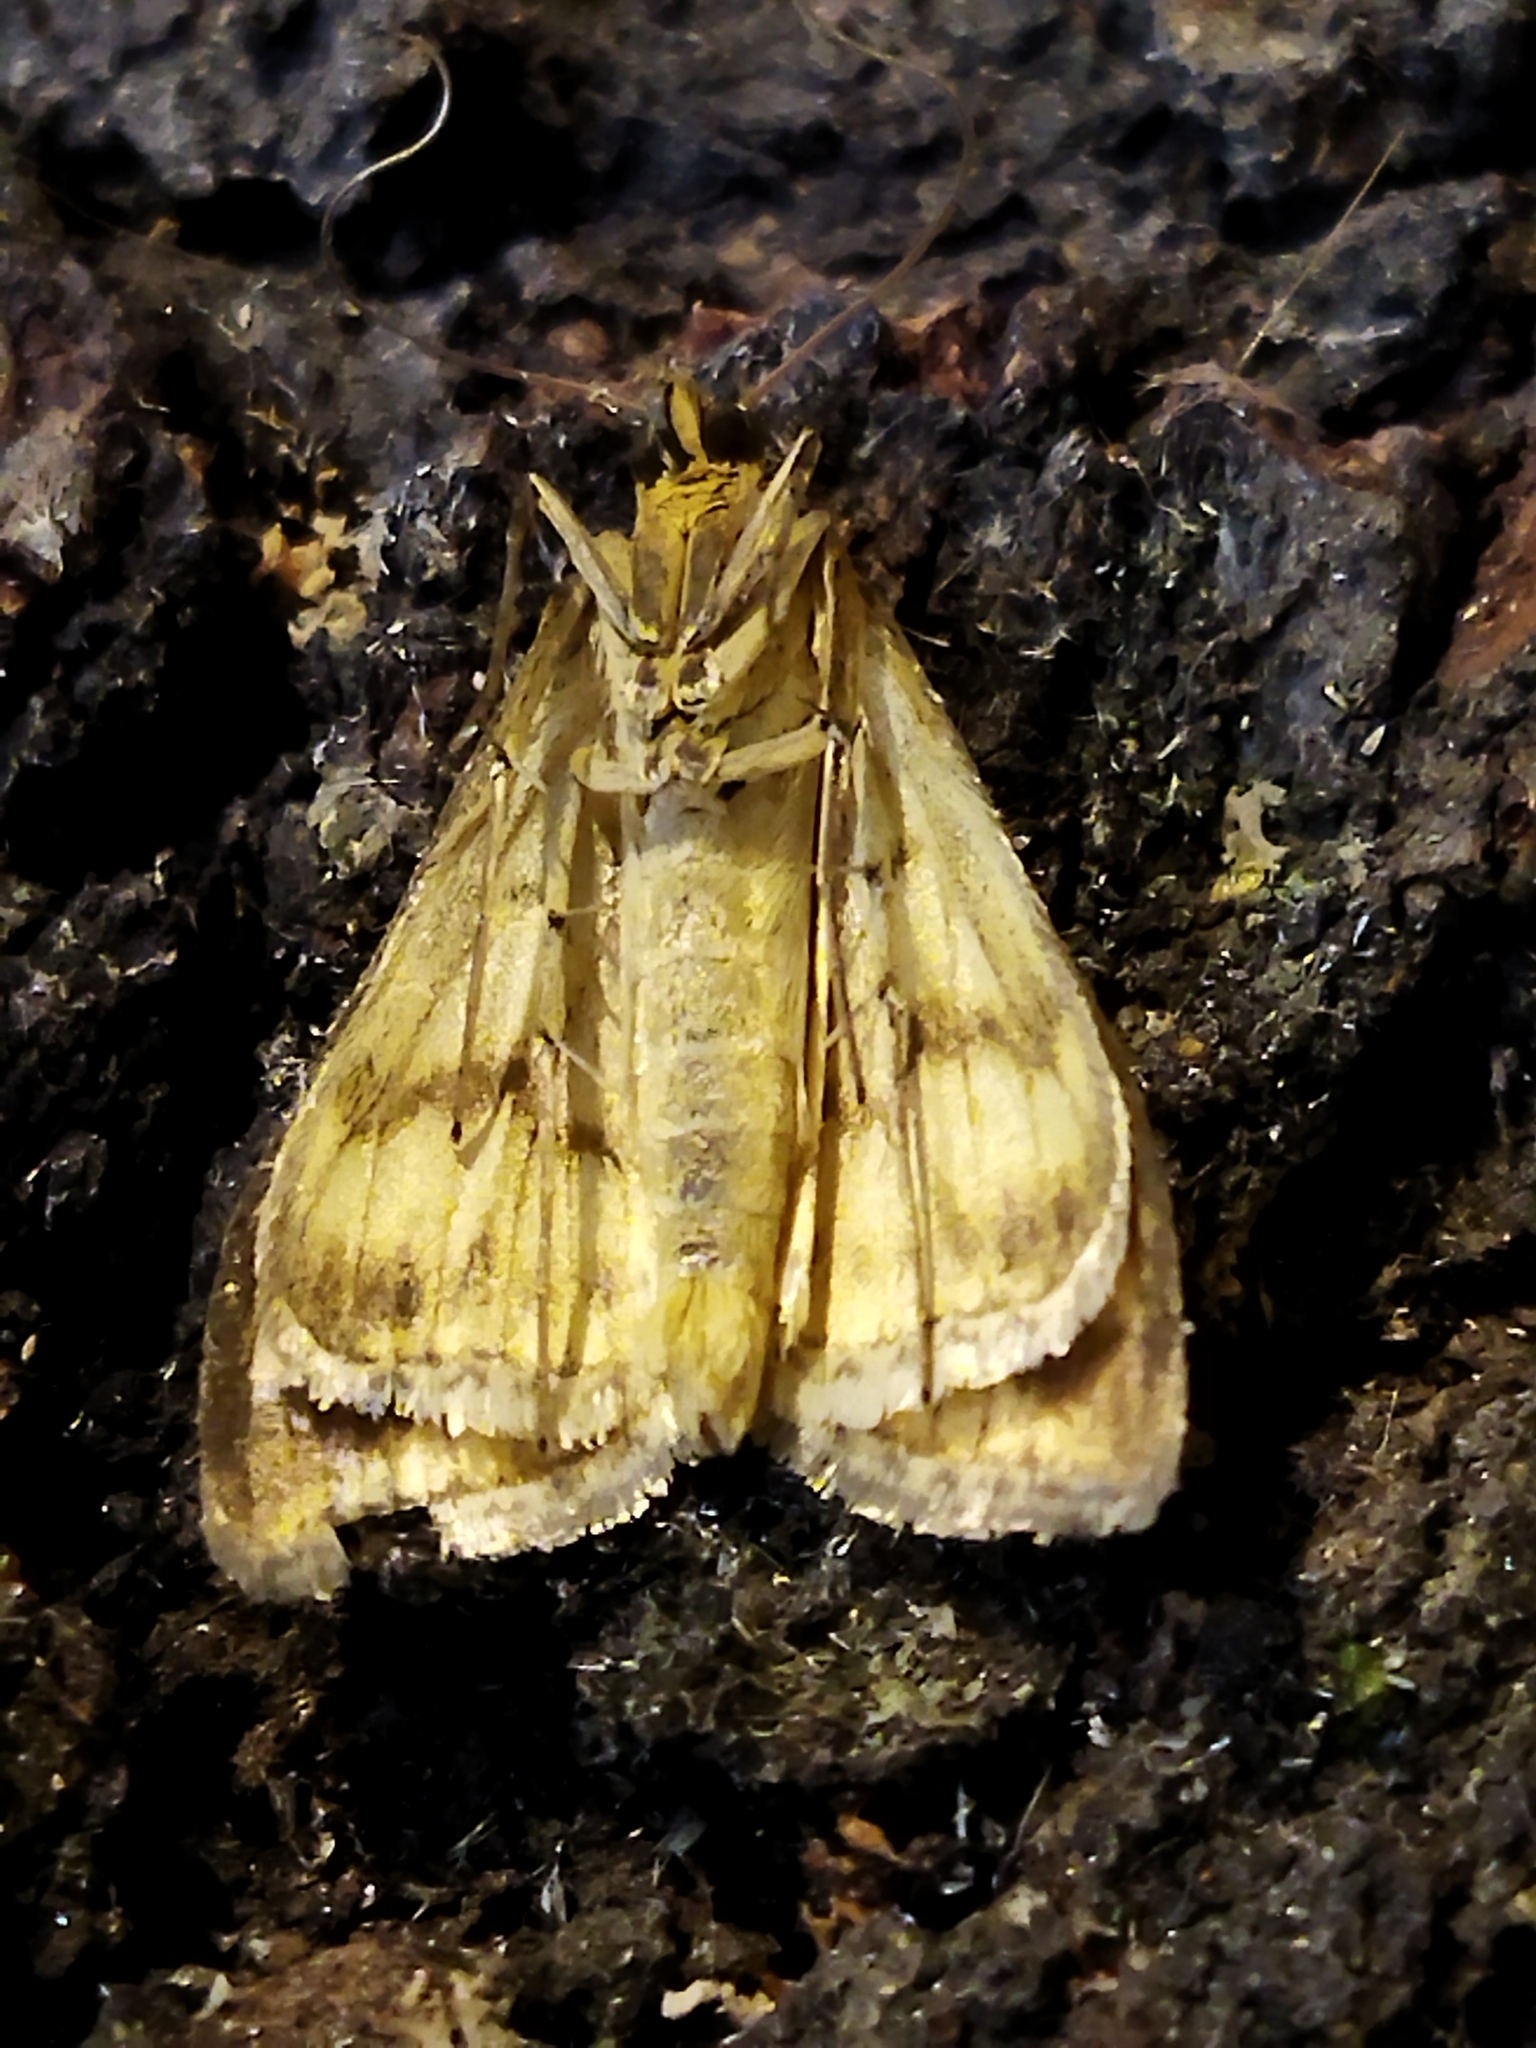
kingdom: Animalia
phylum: Arthropoda
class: Insecta
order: Lepidoptera
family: Crambidae
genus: Sitochroa
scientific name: Sitochroa verticalis
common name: Lesser pearl
